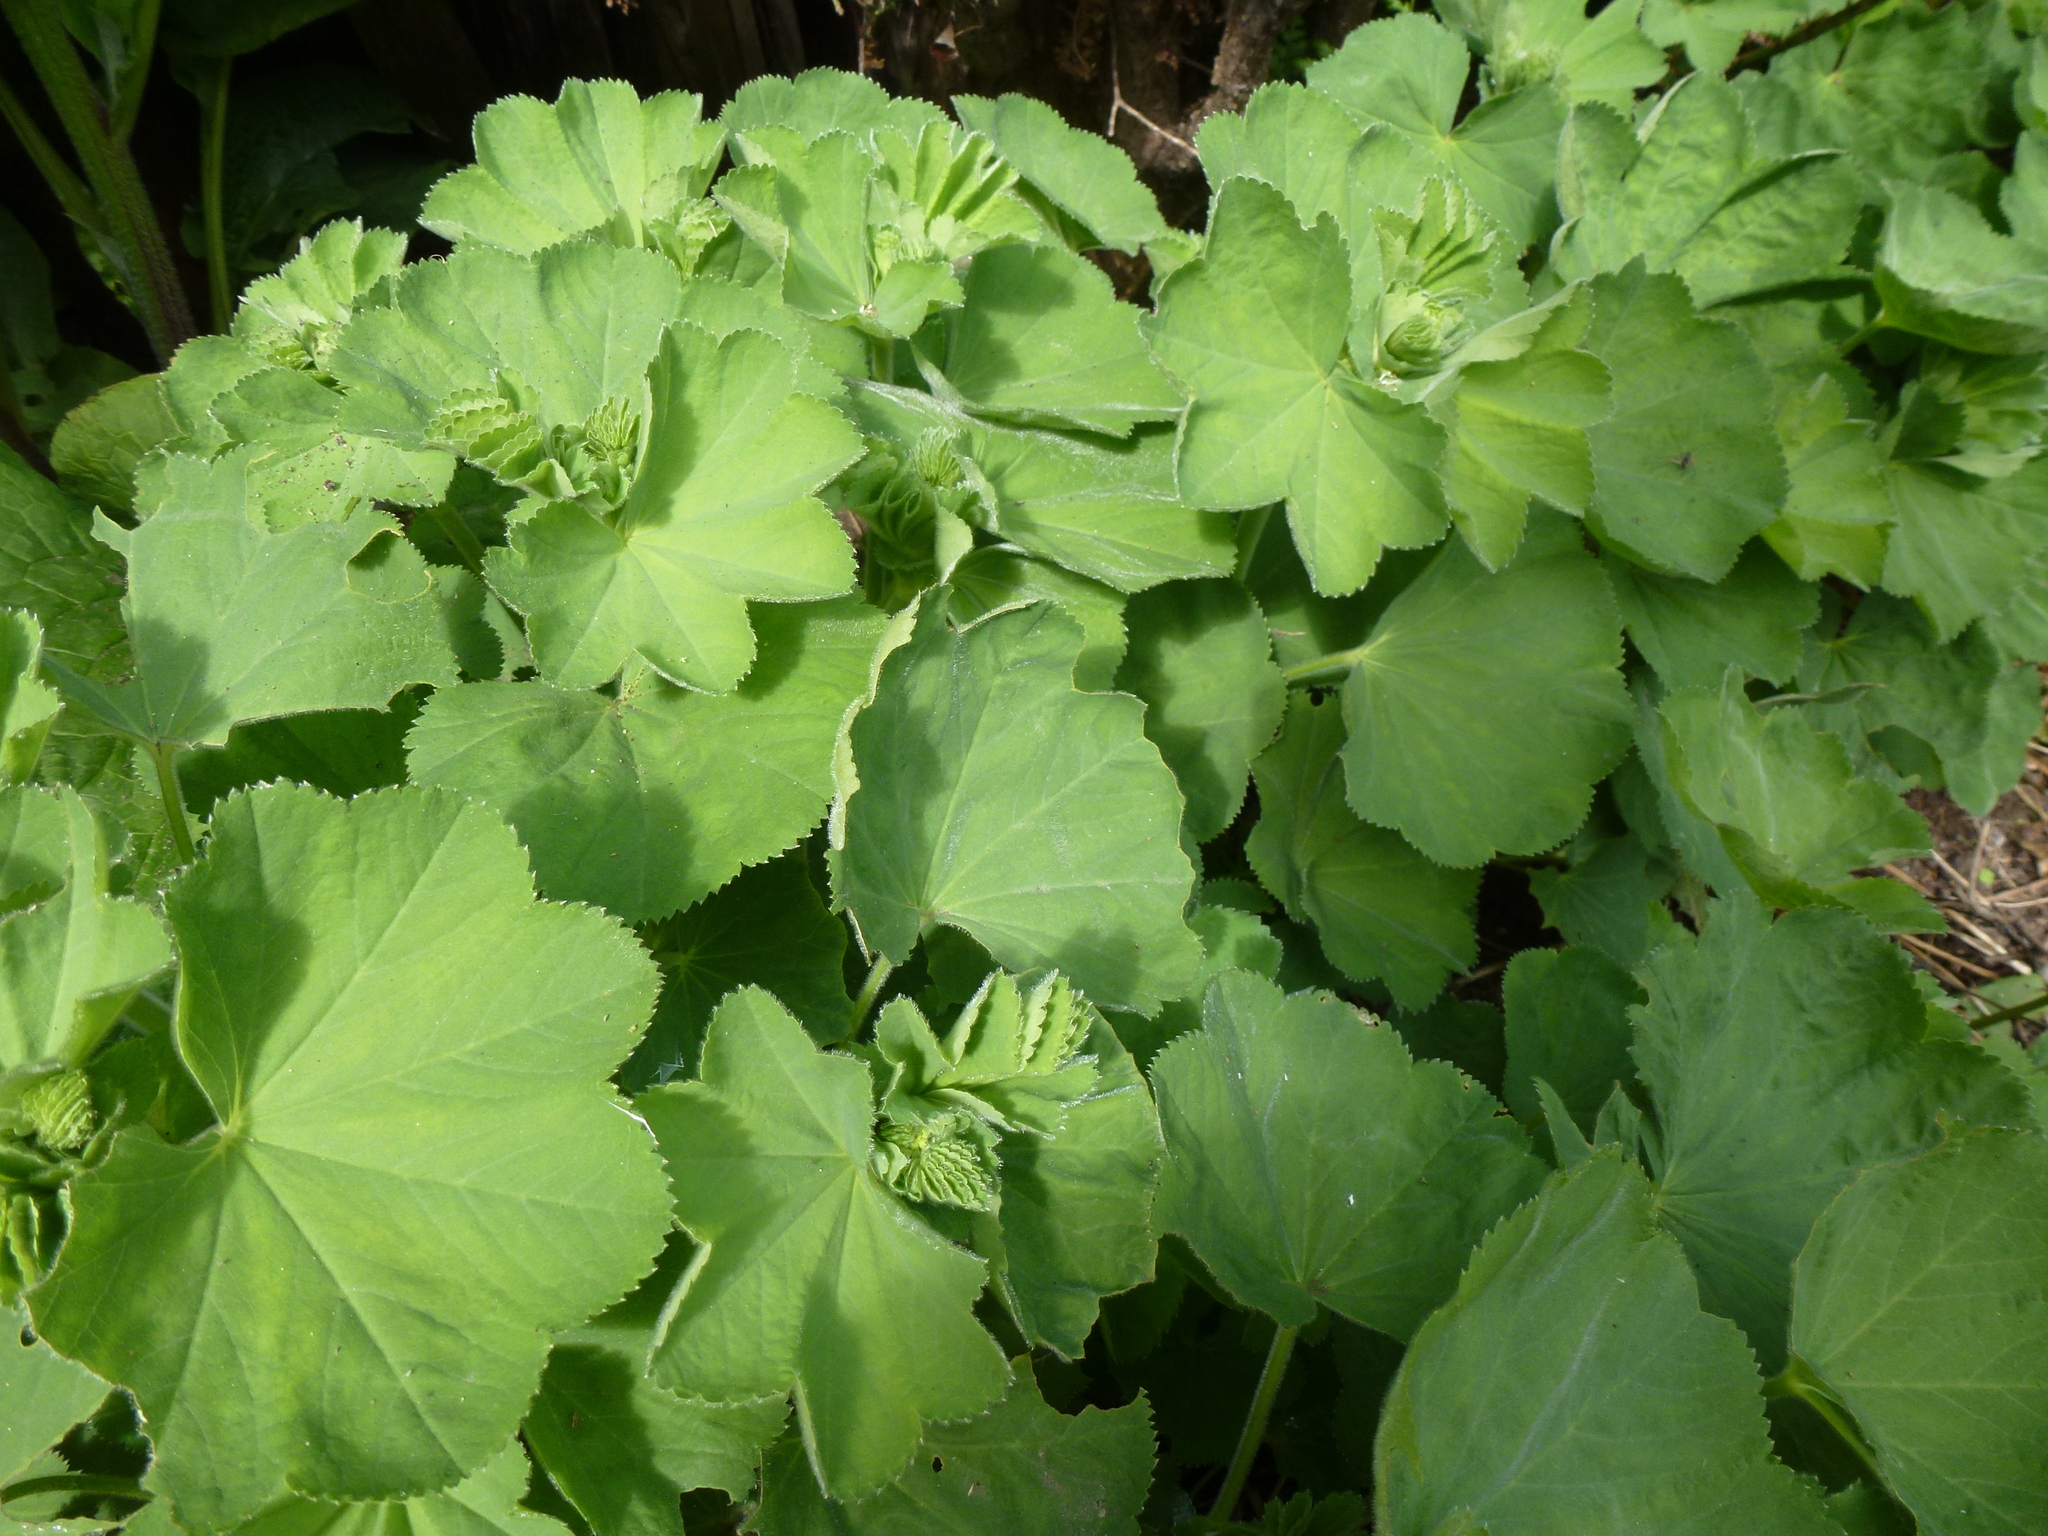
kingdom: Plantae
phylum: Tracheophyta
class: Magnoliopsida
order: Rosales
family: Rosaceae
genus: Alchemilla
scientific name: Alchemilla mollis
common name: Lady's-mantle
